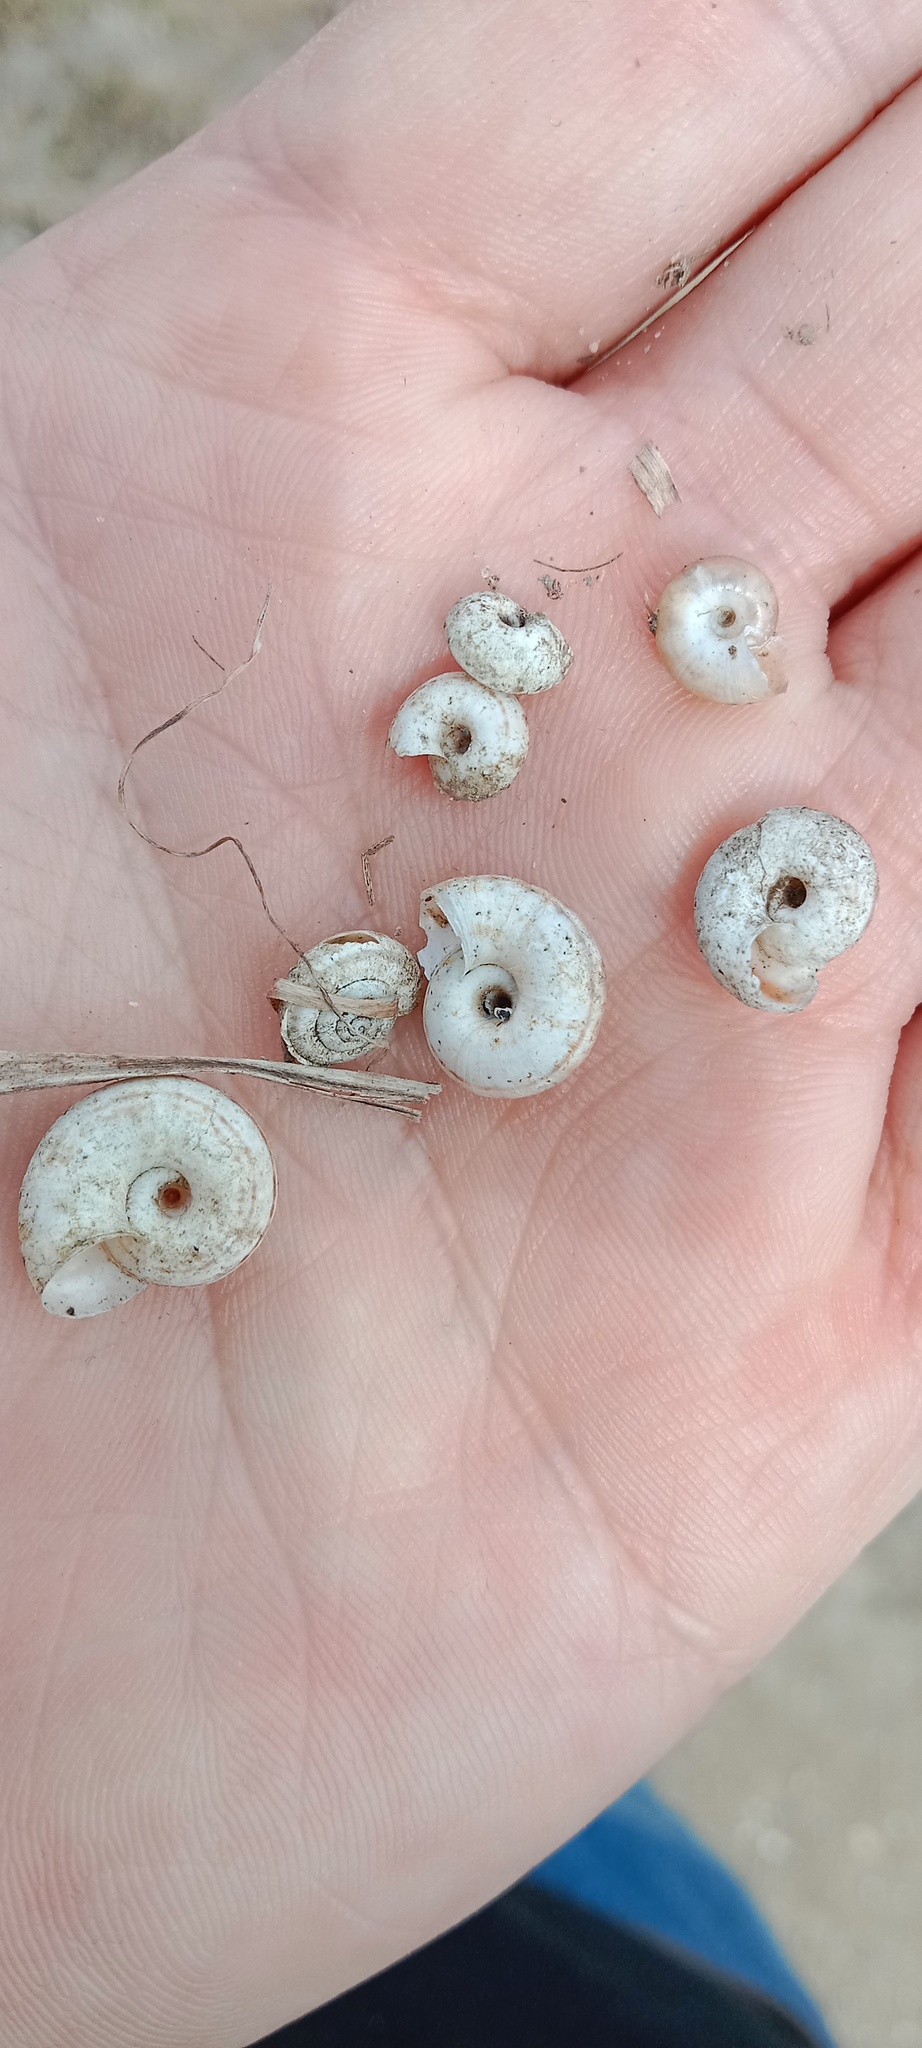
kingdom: Animalia
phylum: Mollusca
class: Gastropoda
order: Stylommatophora
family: Geomitridae
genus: Xerolenta
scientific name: Xerolenta obvia
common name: White heath snail
